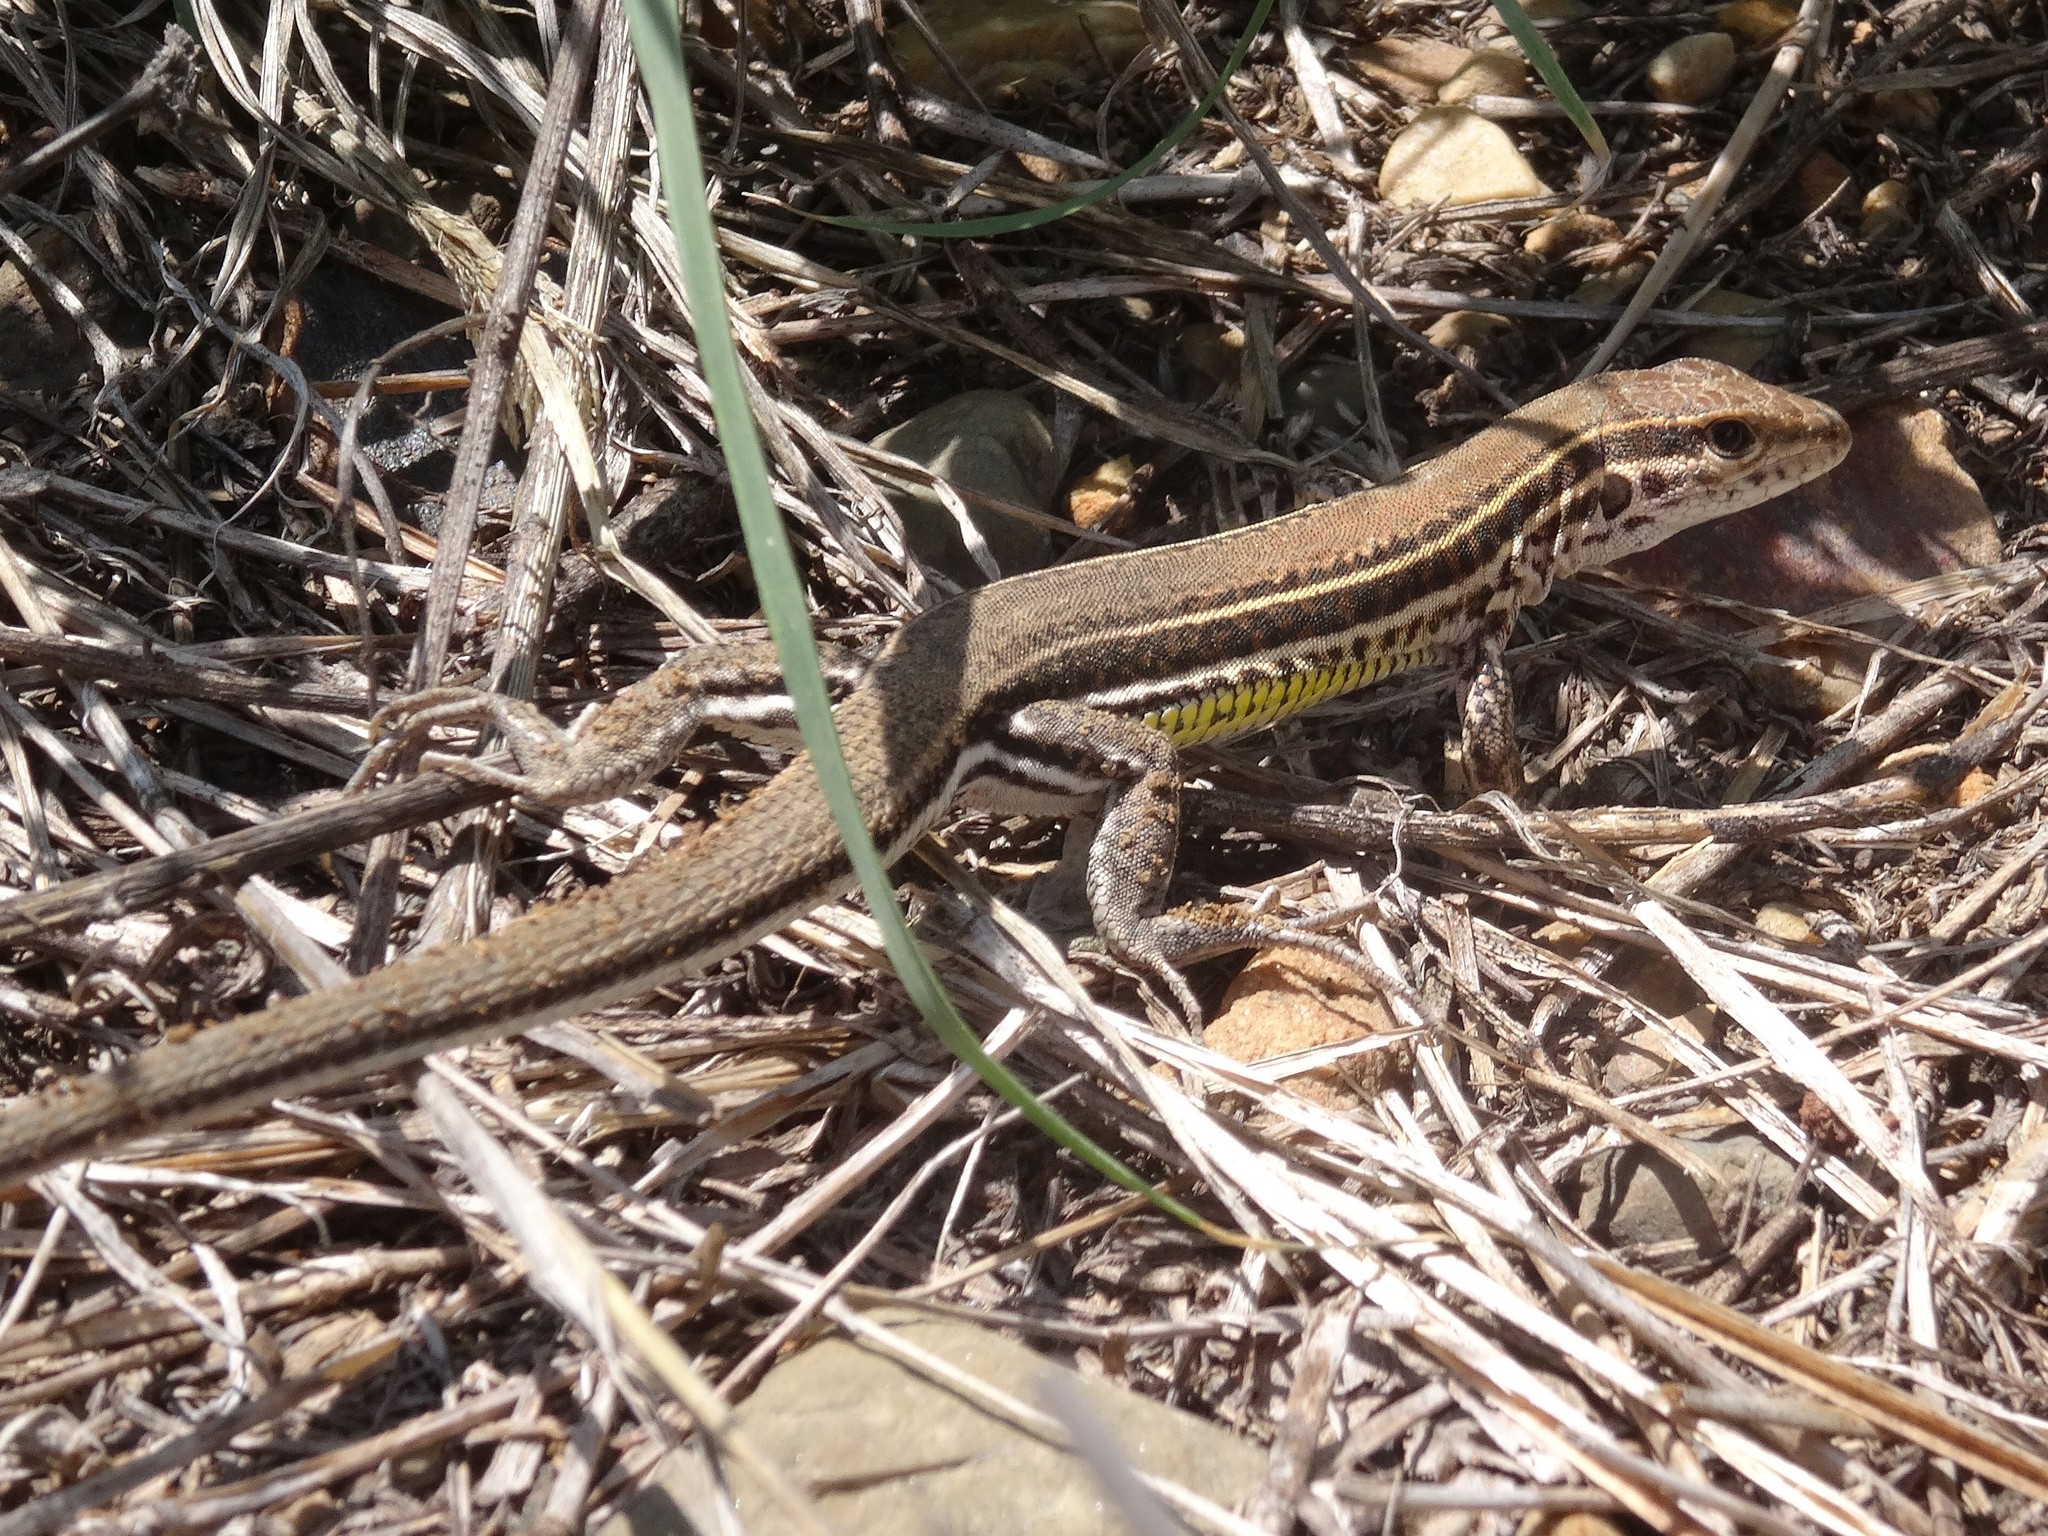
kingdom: Animalia
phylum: Chordata
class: Squamata
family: Teiidae
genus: Contomastix
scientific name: Contomastix vittata
